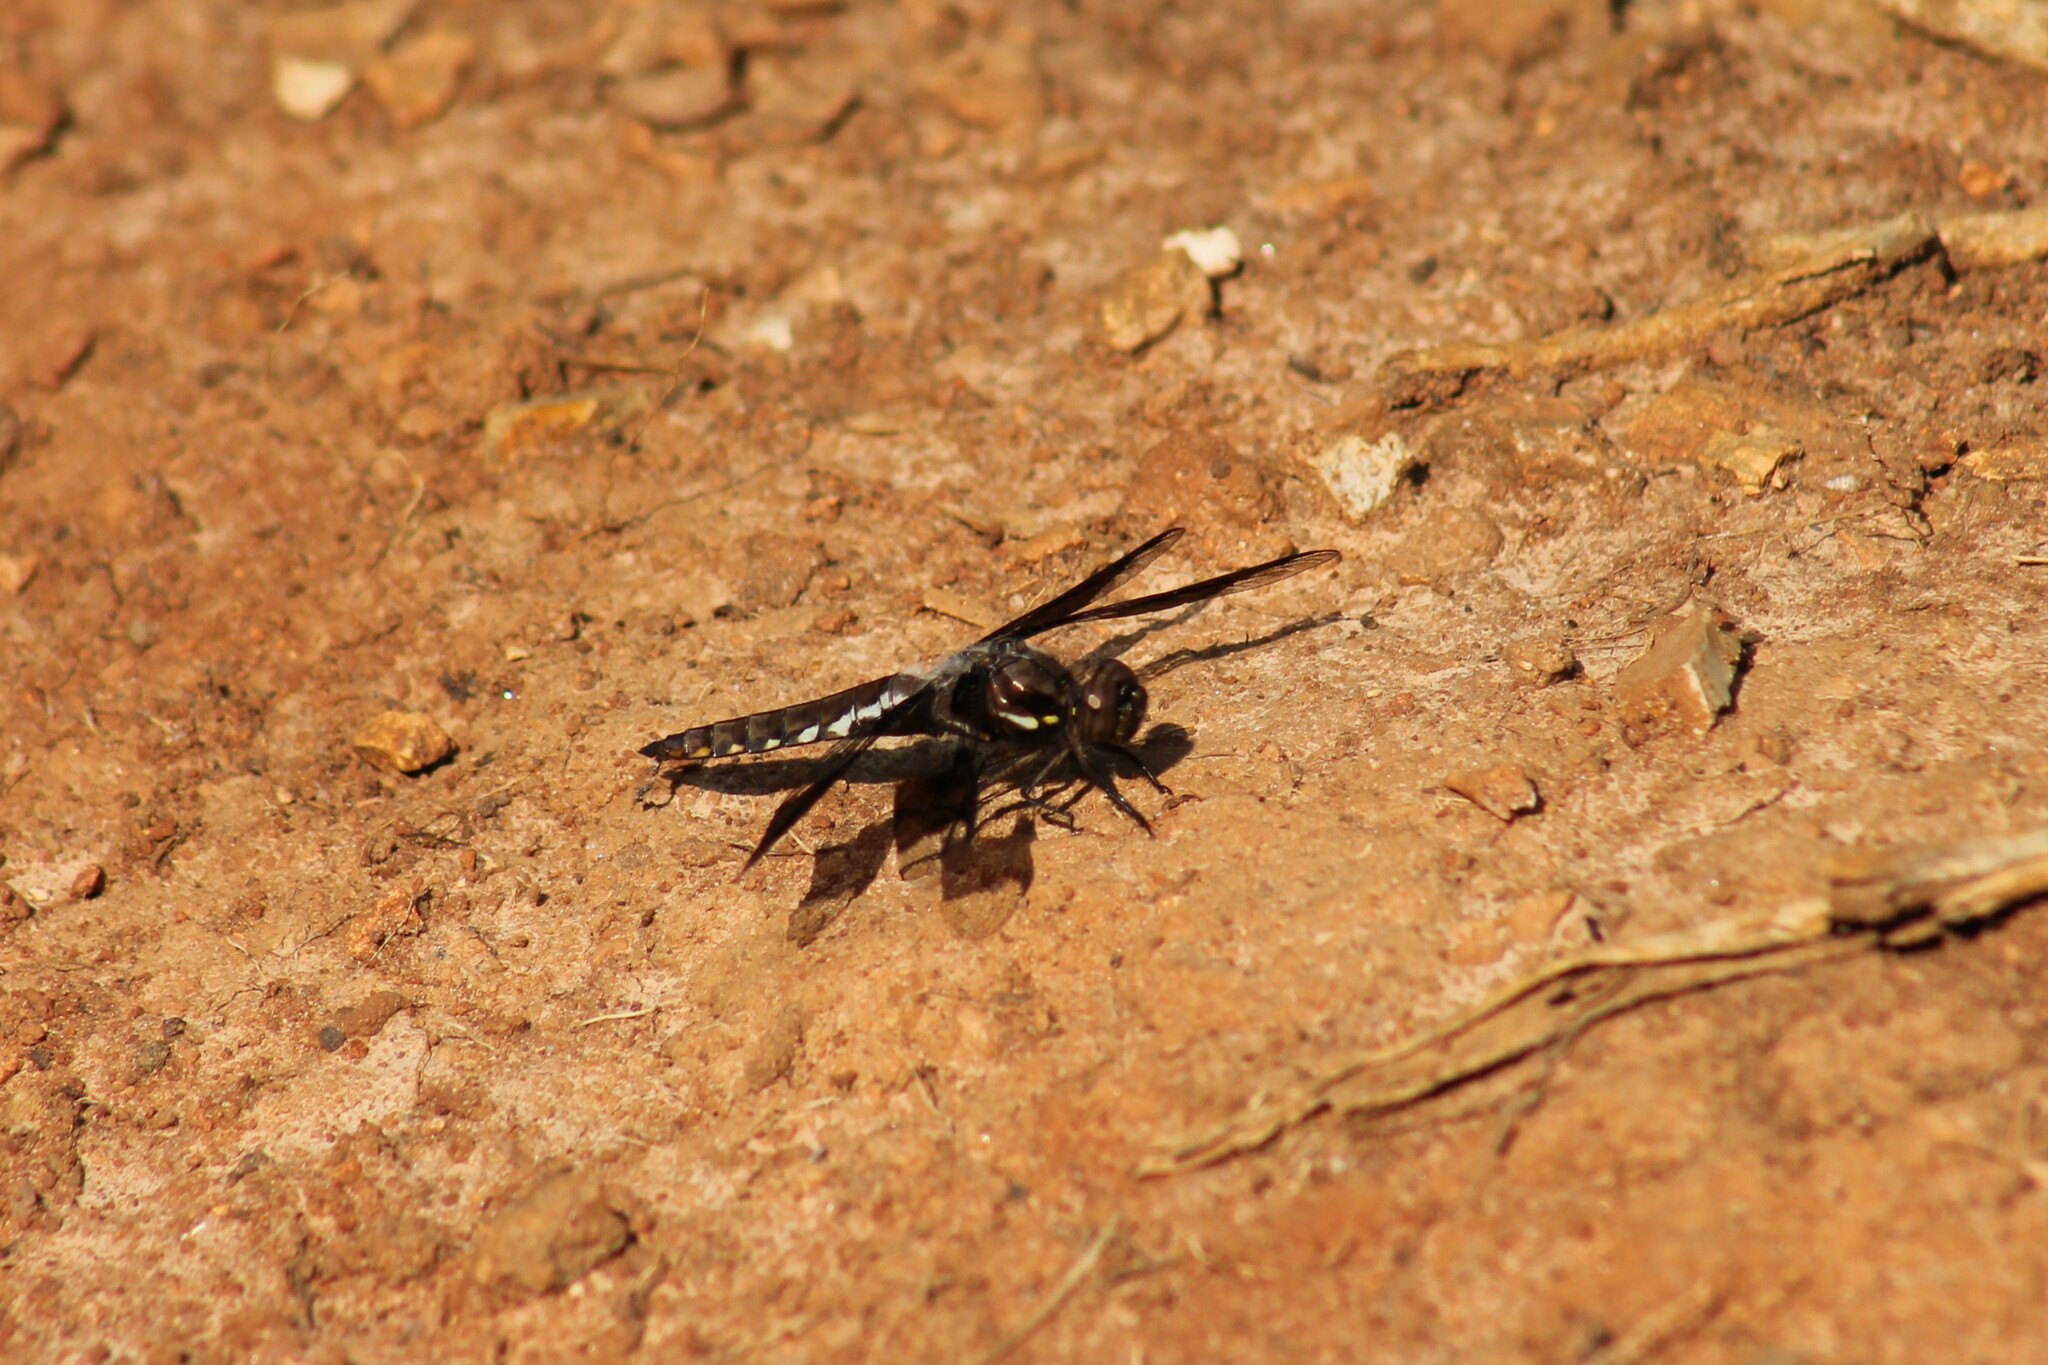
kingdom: Animalia
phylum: Arthropoda
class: Insecta
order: Odonata
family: Libellulidae
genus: Plathemis
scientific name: Plathemis lydia
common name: Common whitetail
